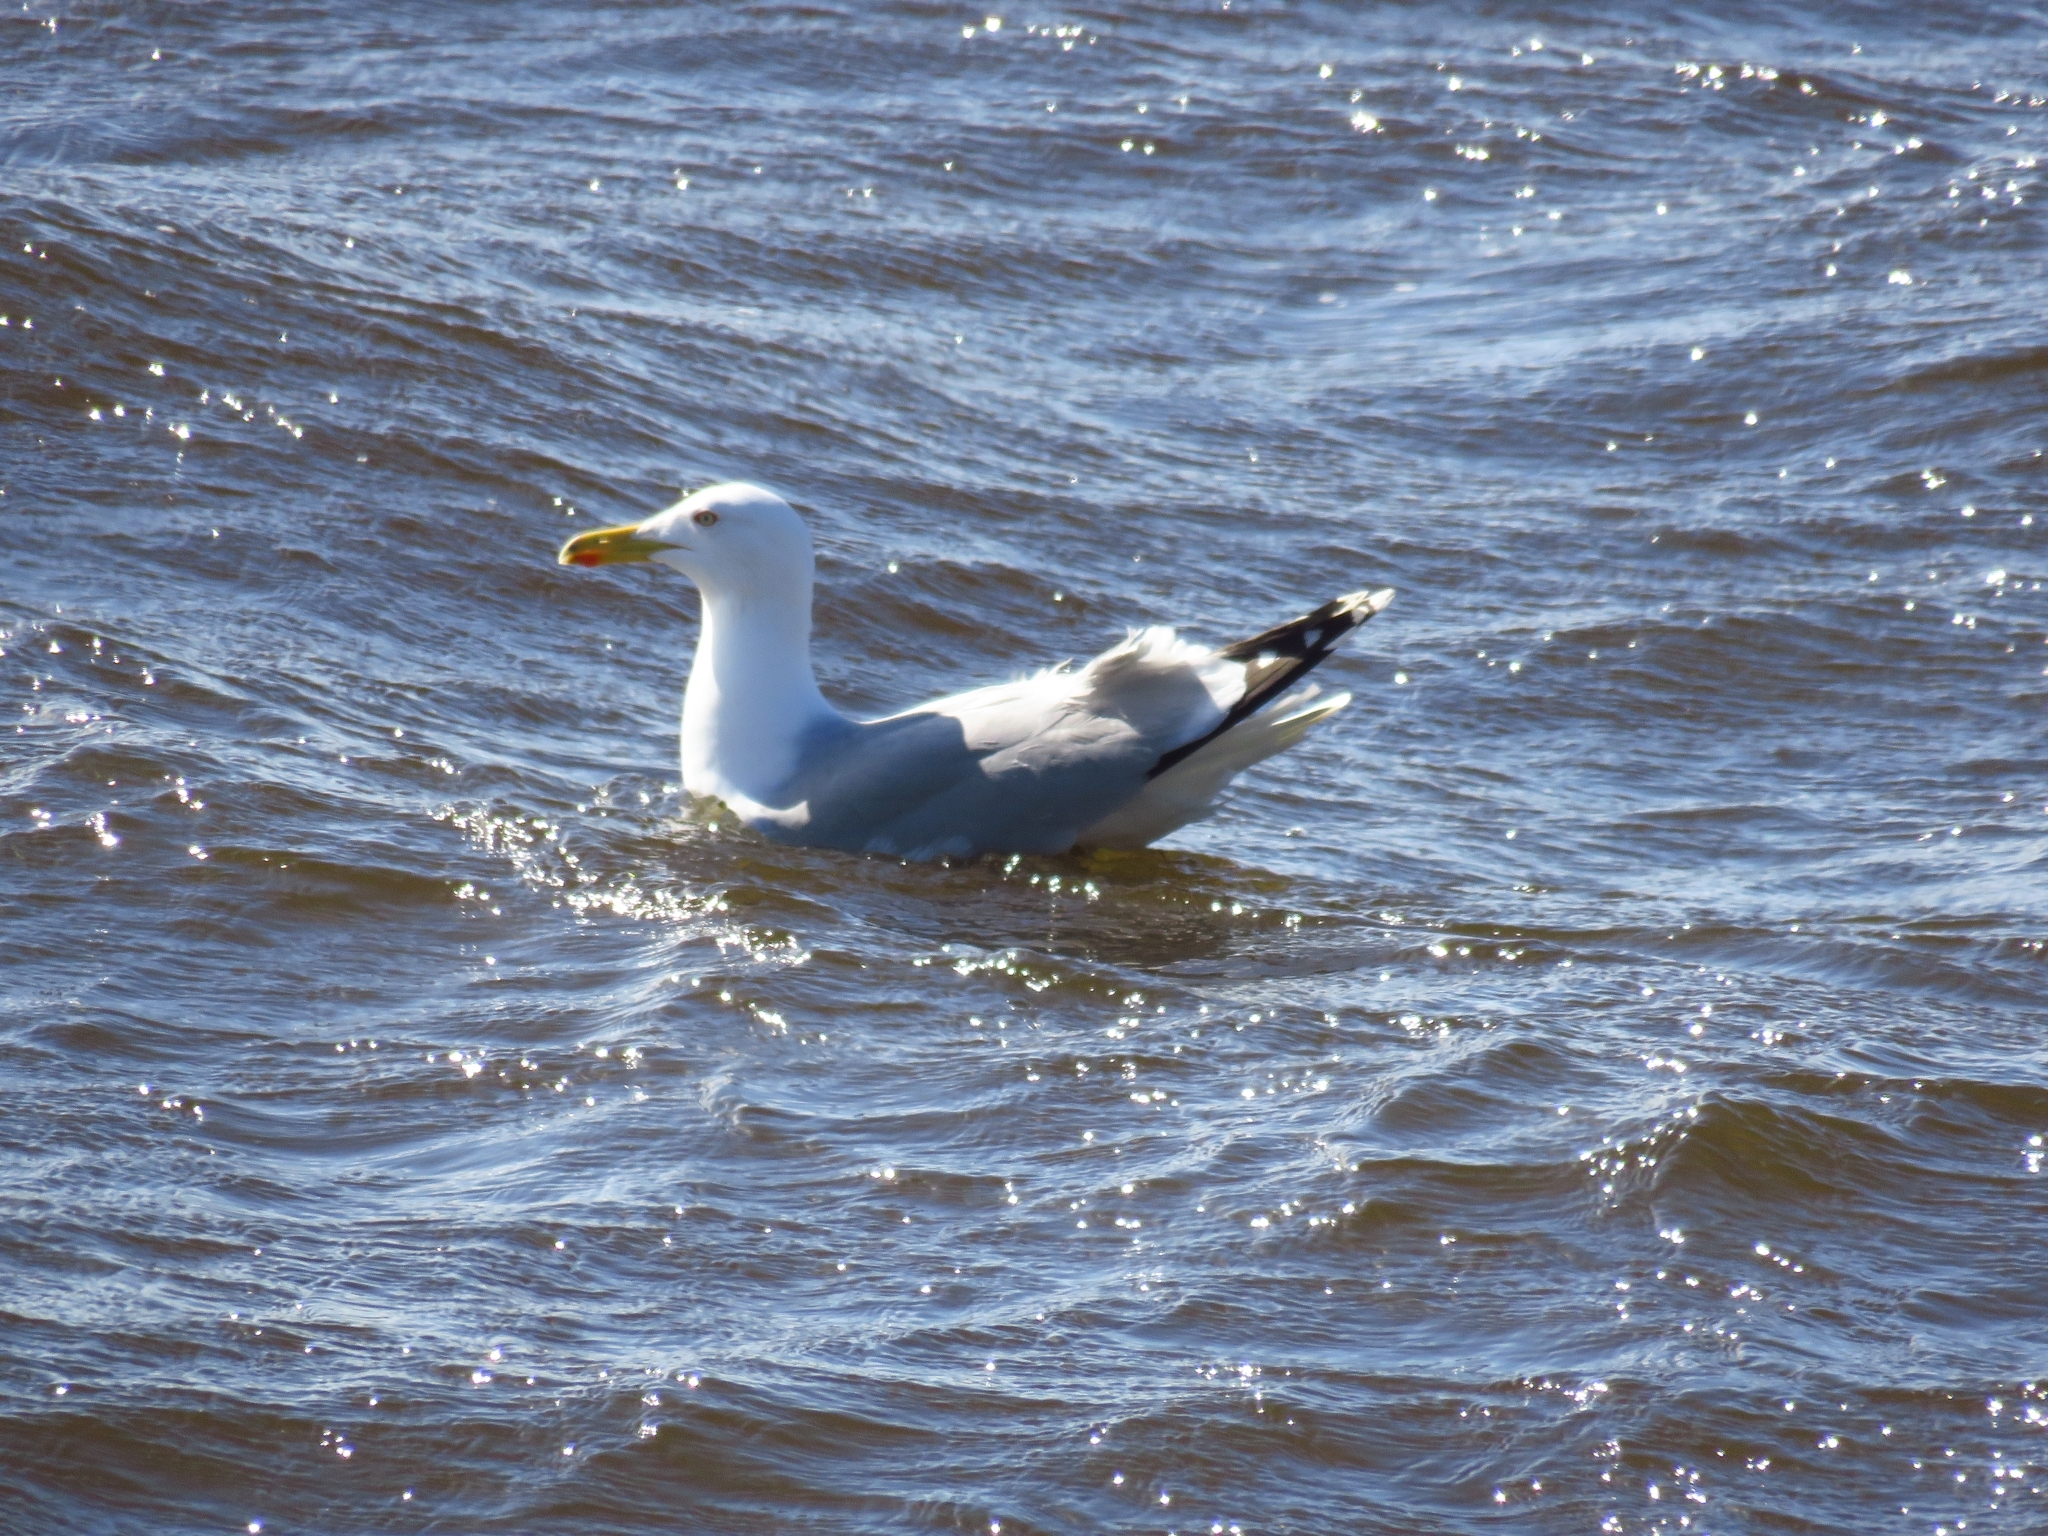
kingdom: Animalia
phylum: Chordata
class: Aves
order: Charadriiformes
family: Laridae
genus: Larus
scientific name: Larus argentatus
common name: Herring gull
